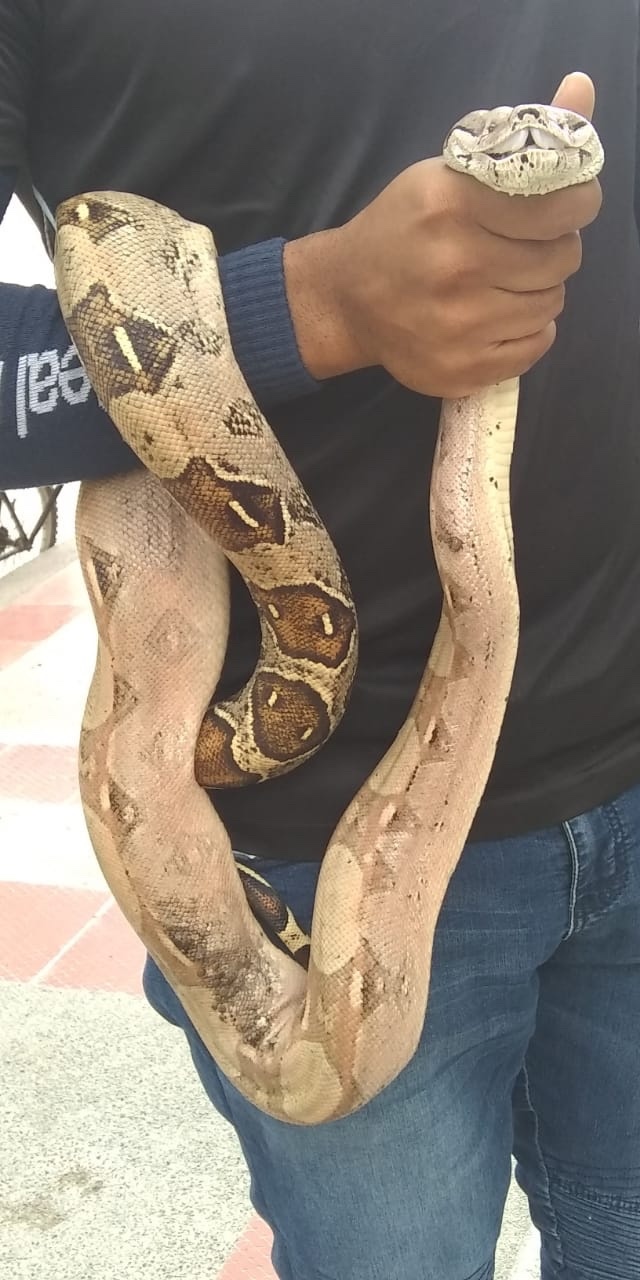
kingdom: Animalia
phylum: Chordata
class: Squamata
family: Boidae
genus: Boa
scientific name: Boa imperator
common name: Central american boa
